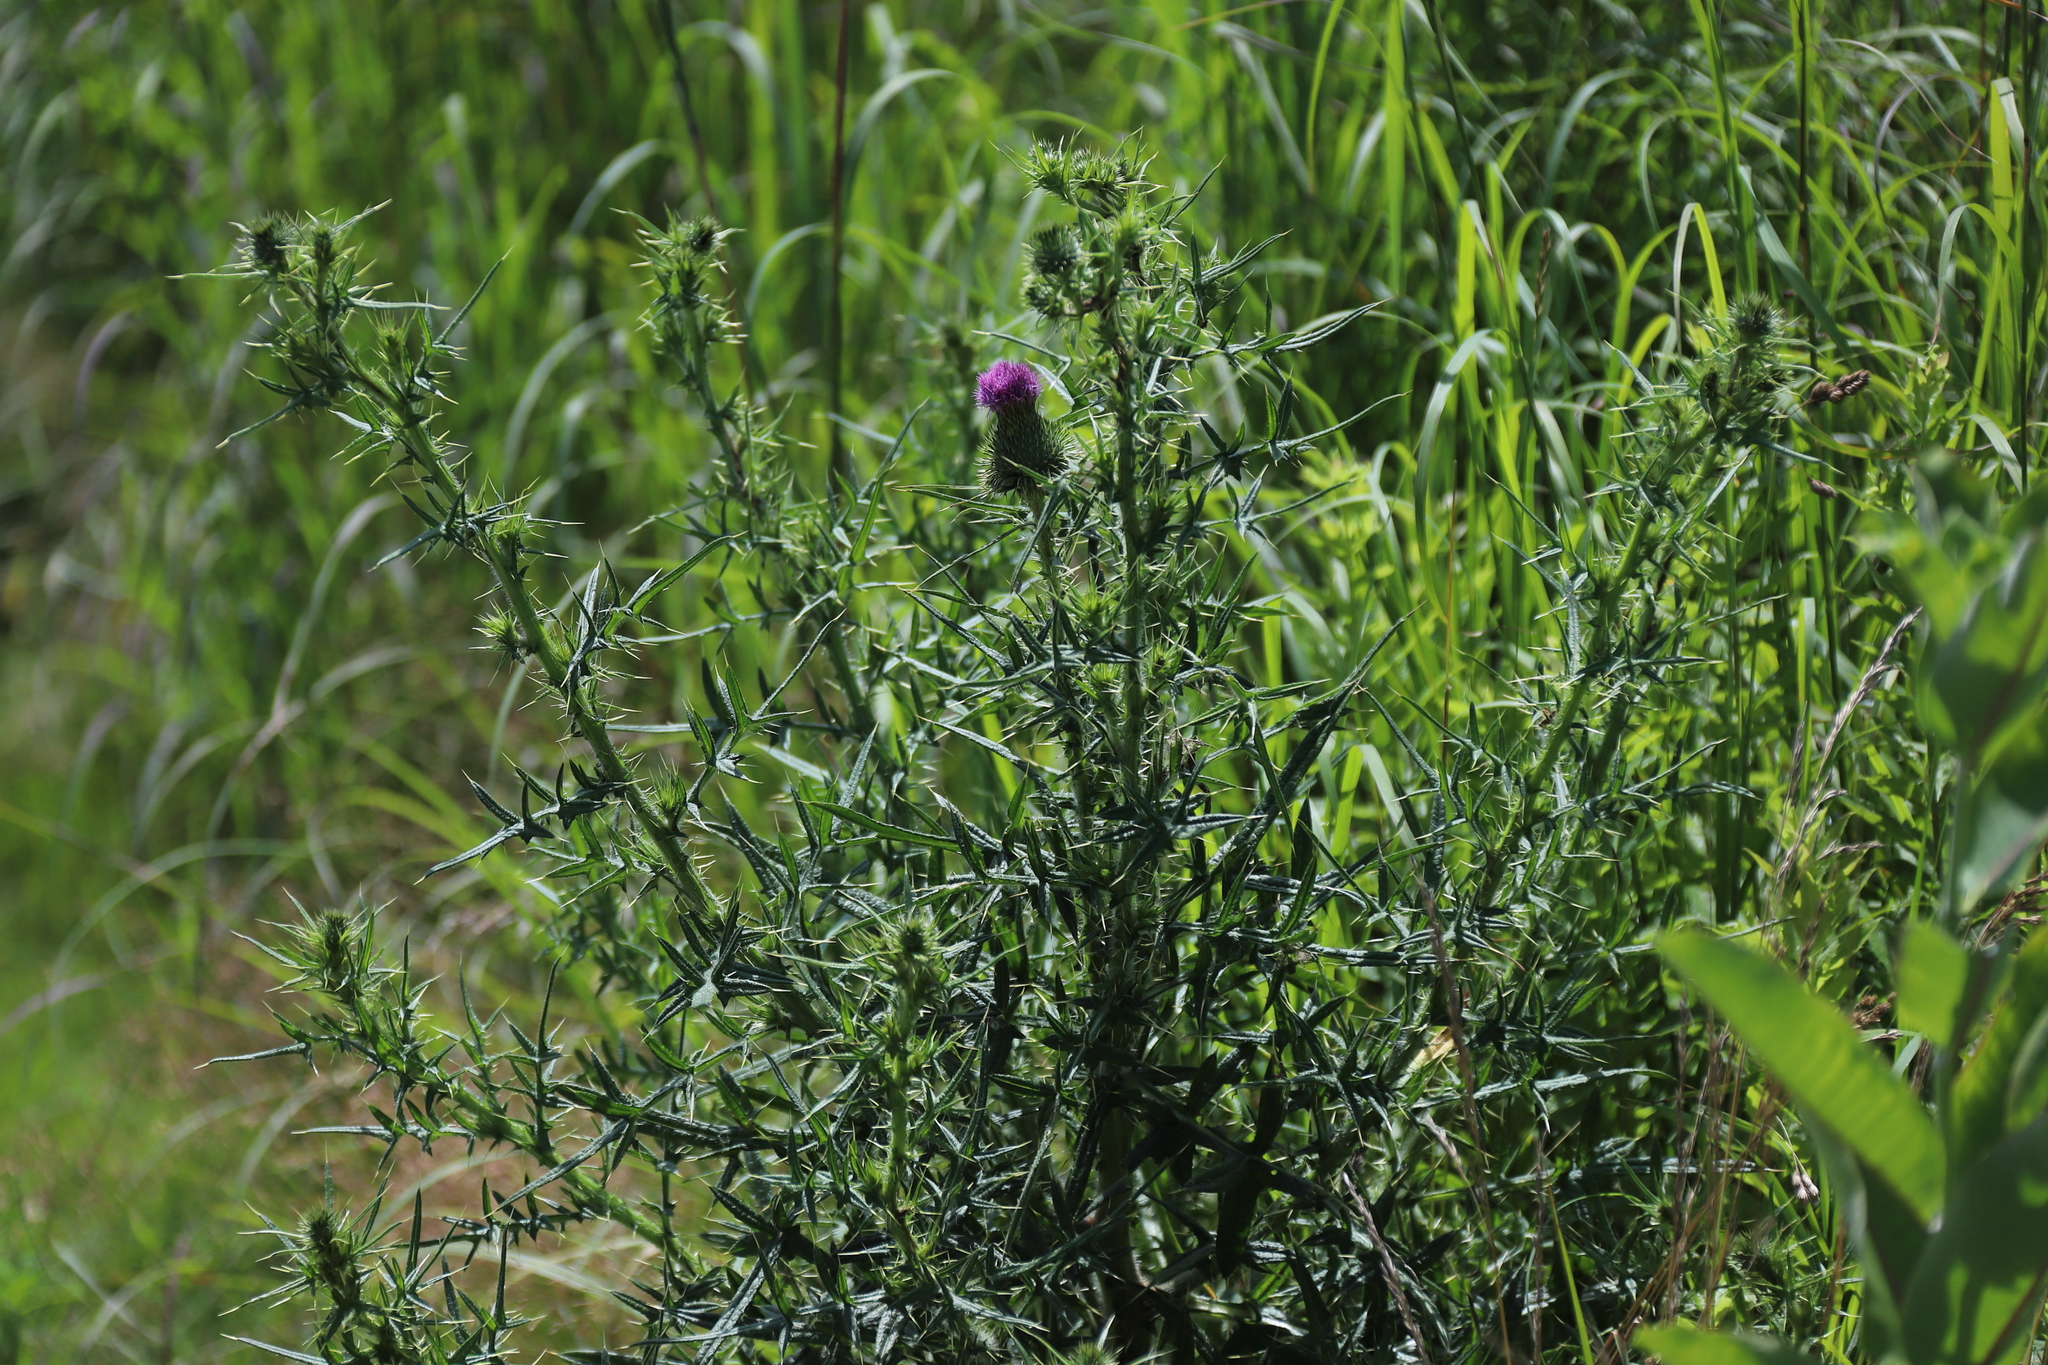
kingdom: Plantae
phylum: Tracheophyta
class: Magnoliopsida
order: Asterales
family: Asteraceae
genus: Cirsium
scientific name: Cirsium vulgare
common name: Bull thistle
